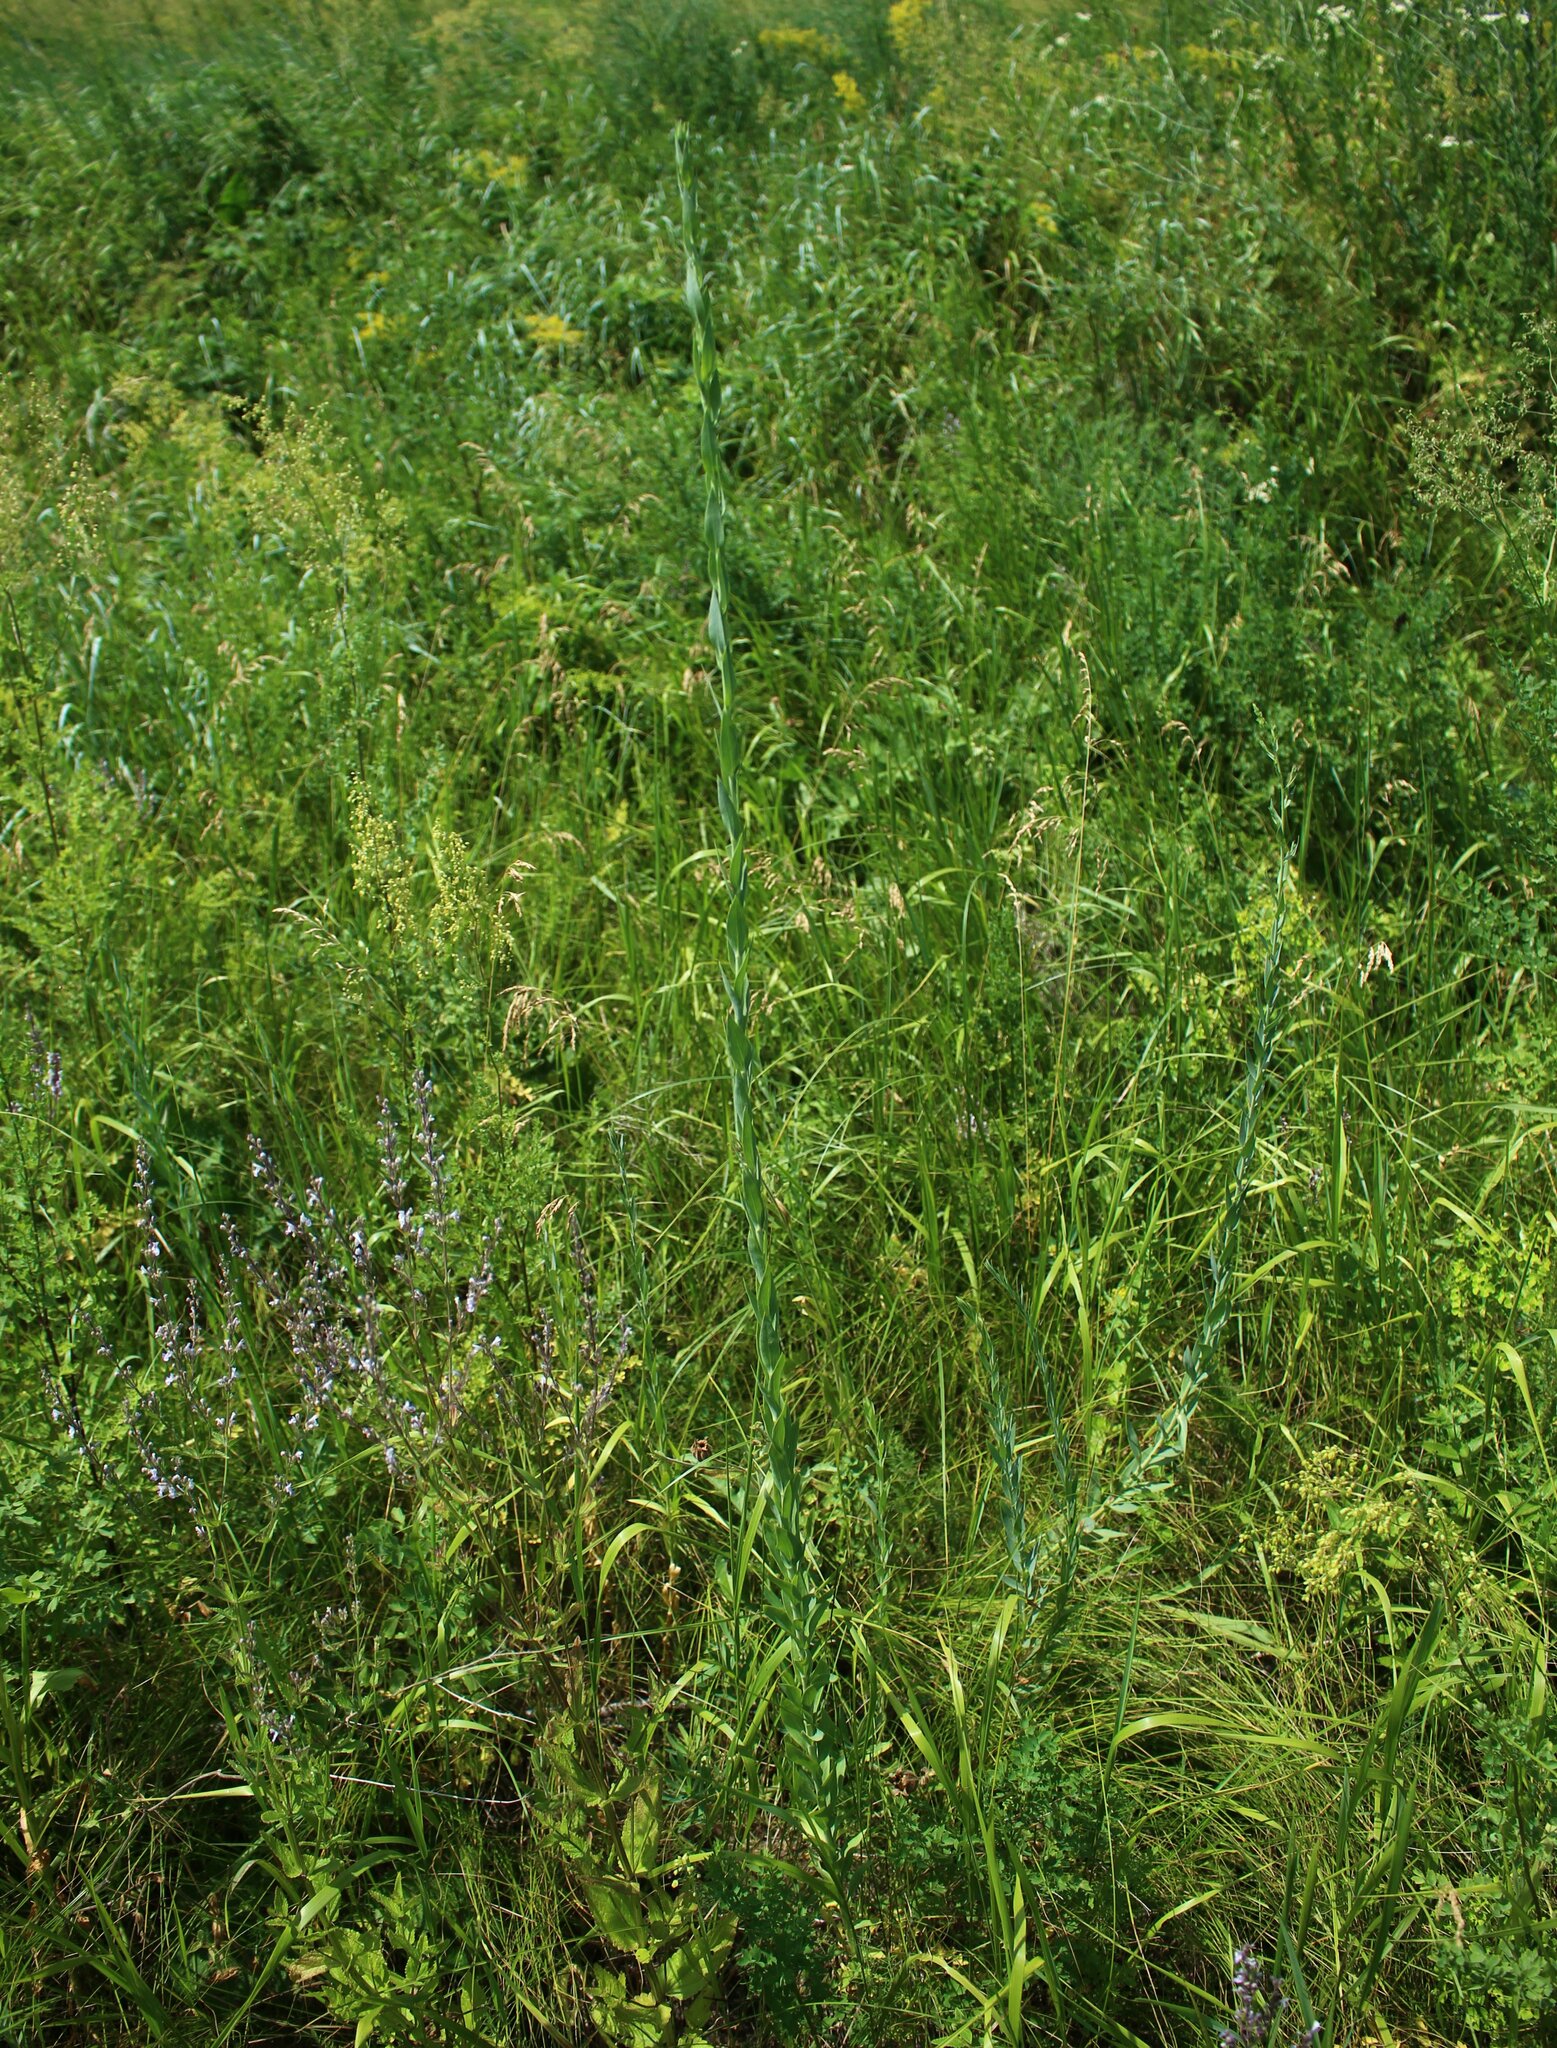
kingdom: Plantae
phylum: Tracheophyta
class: Magnoliopsida
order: Lamiales
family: Plantaginaceae
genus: Linaria
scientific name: Linaria genistifolia
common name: Broomleaf toadflax
